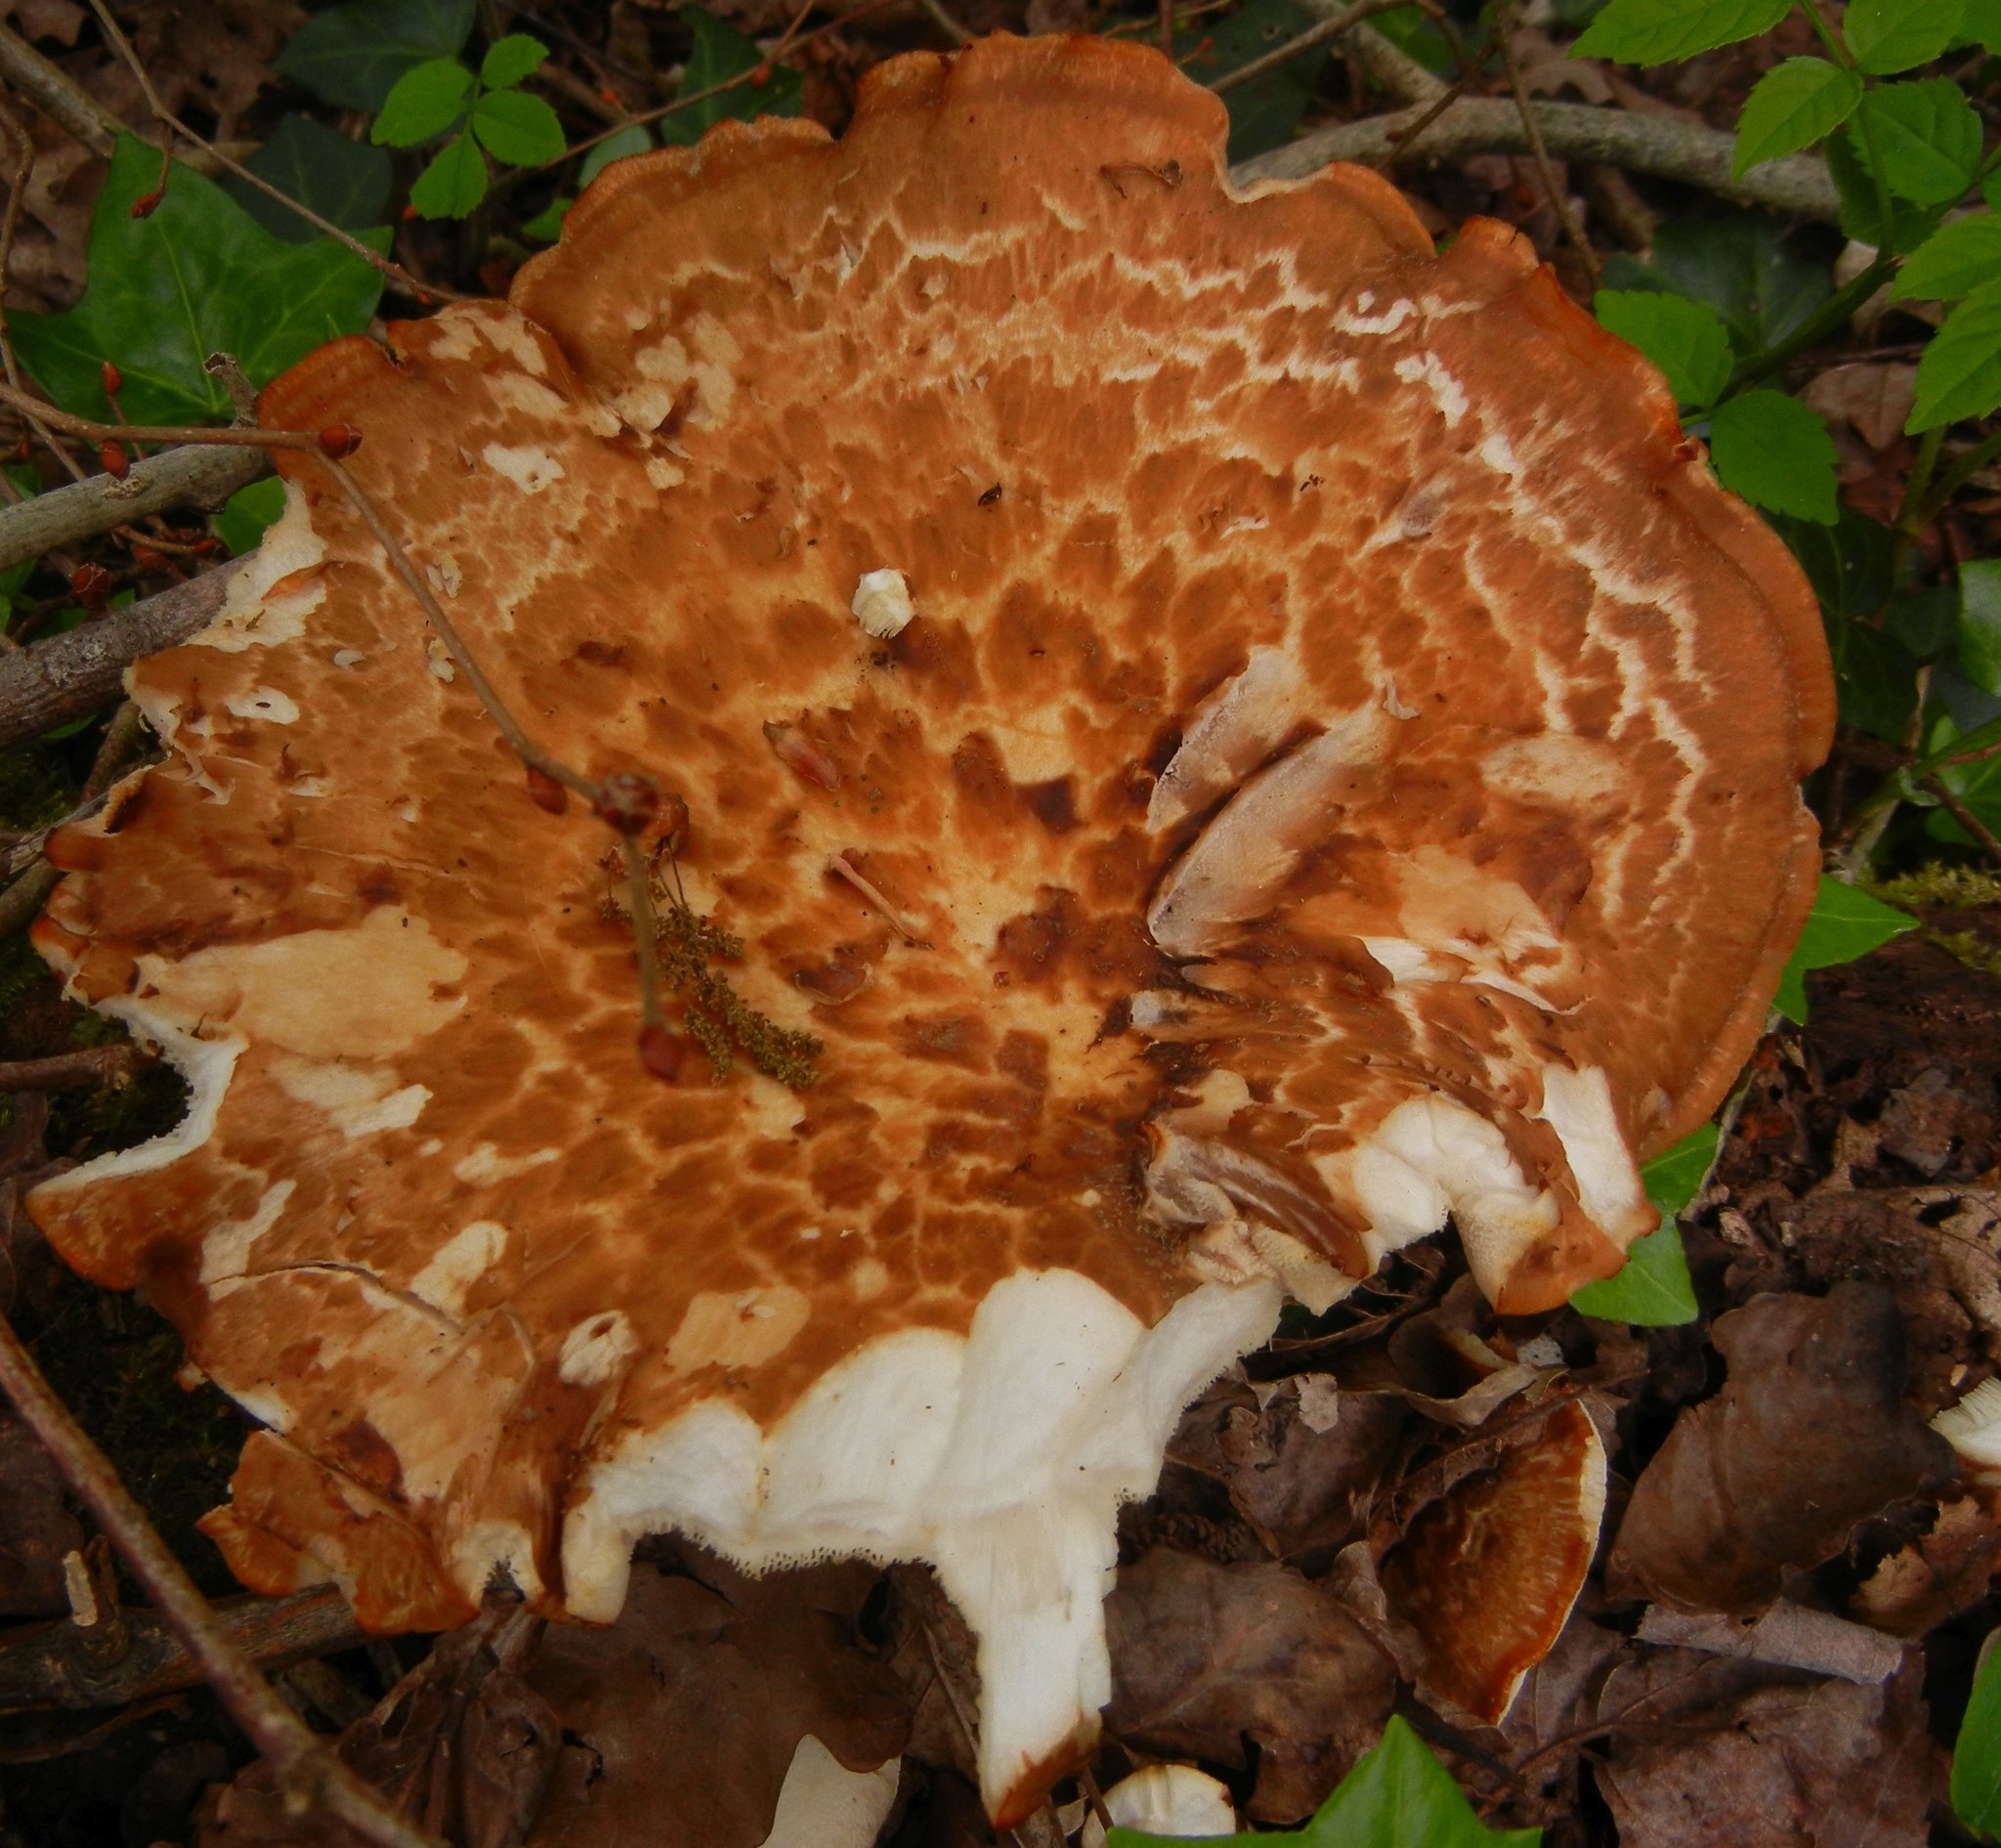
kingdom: Fungi
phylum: Basidiomycota
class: Agaricomycetes
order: Polyporales
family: Polyporaceae
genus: Cerioporus
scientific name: Cerioporus squamosus
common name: Dryad's saddle
